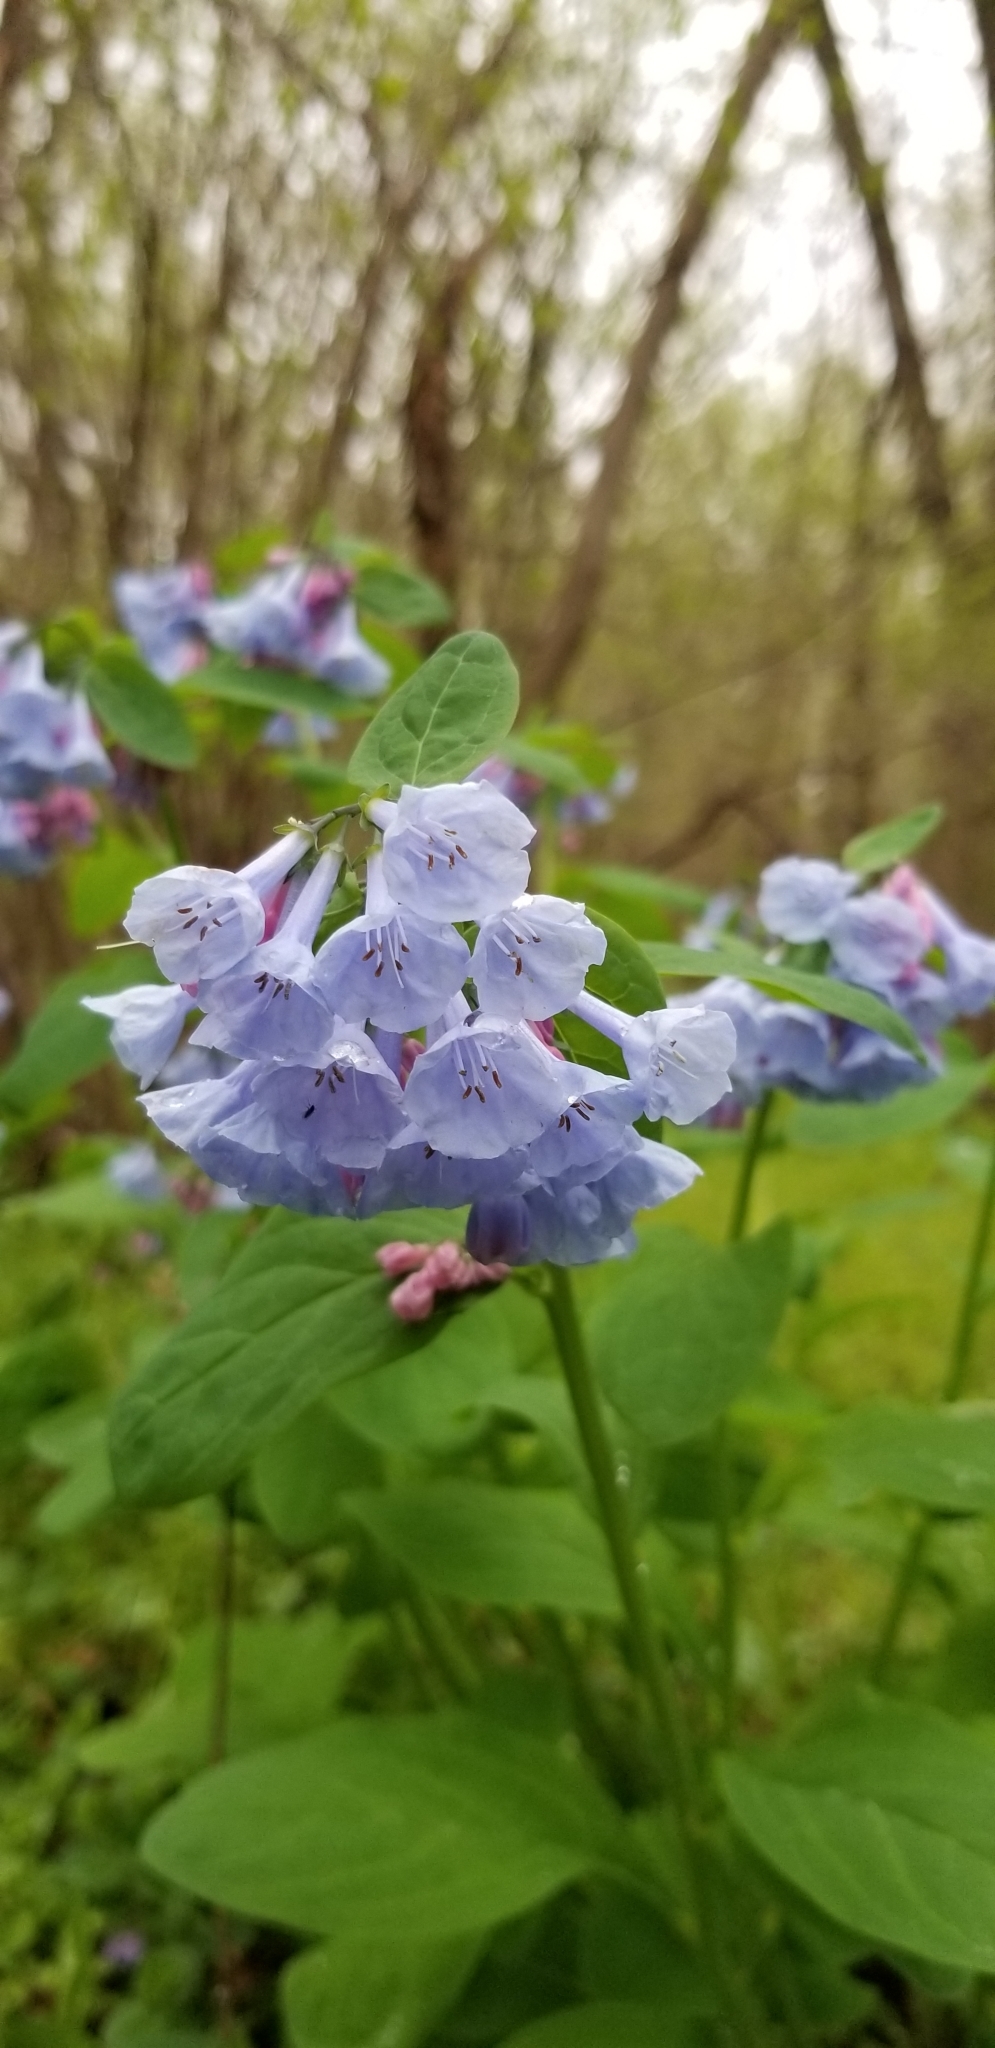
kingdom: Plantae
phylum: Tracheophyta
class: Magnoliopsida
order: Boraginales
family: Boraginaceae
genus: Mertensia
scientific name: Mertensia virginica
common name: Virginia bluebells
